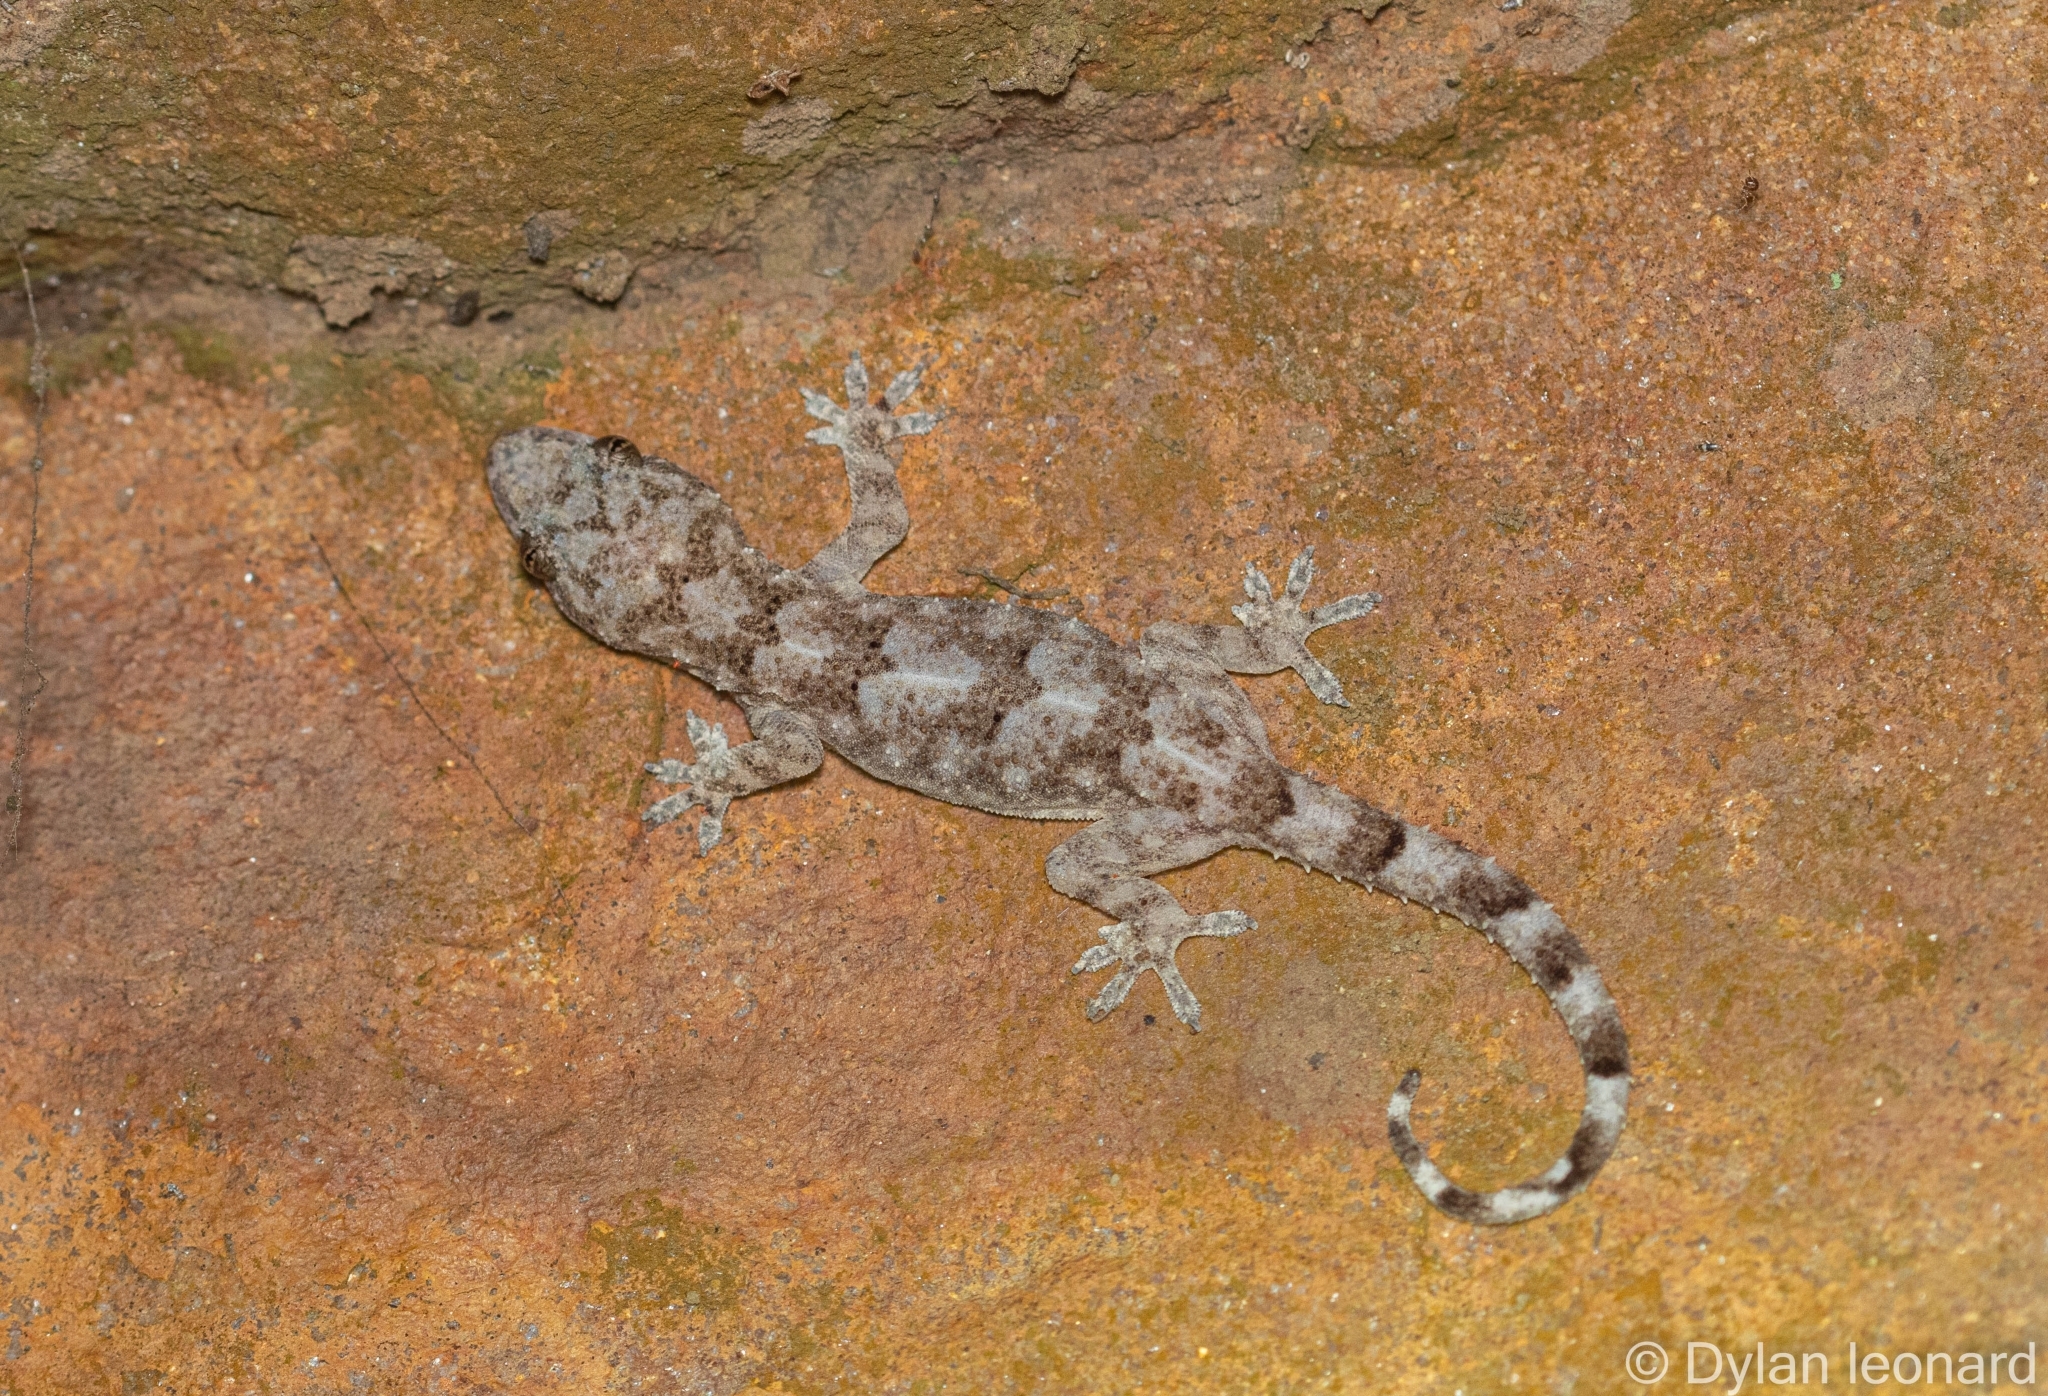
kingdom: Animalia
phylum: Chordata
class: Squamata
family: Gekkonidae
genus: Hemidactylus
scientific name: Hemidactylus mabouia
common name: House gecko
